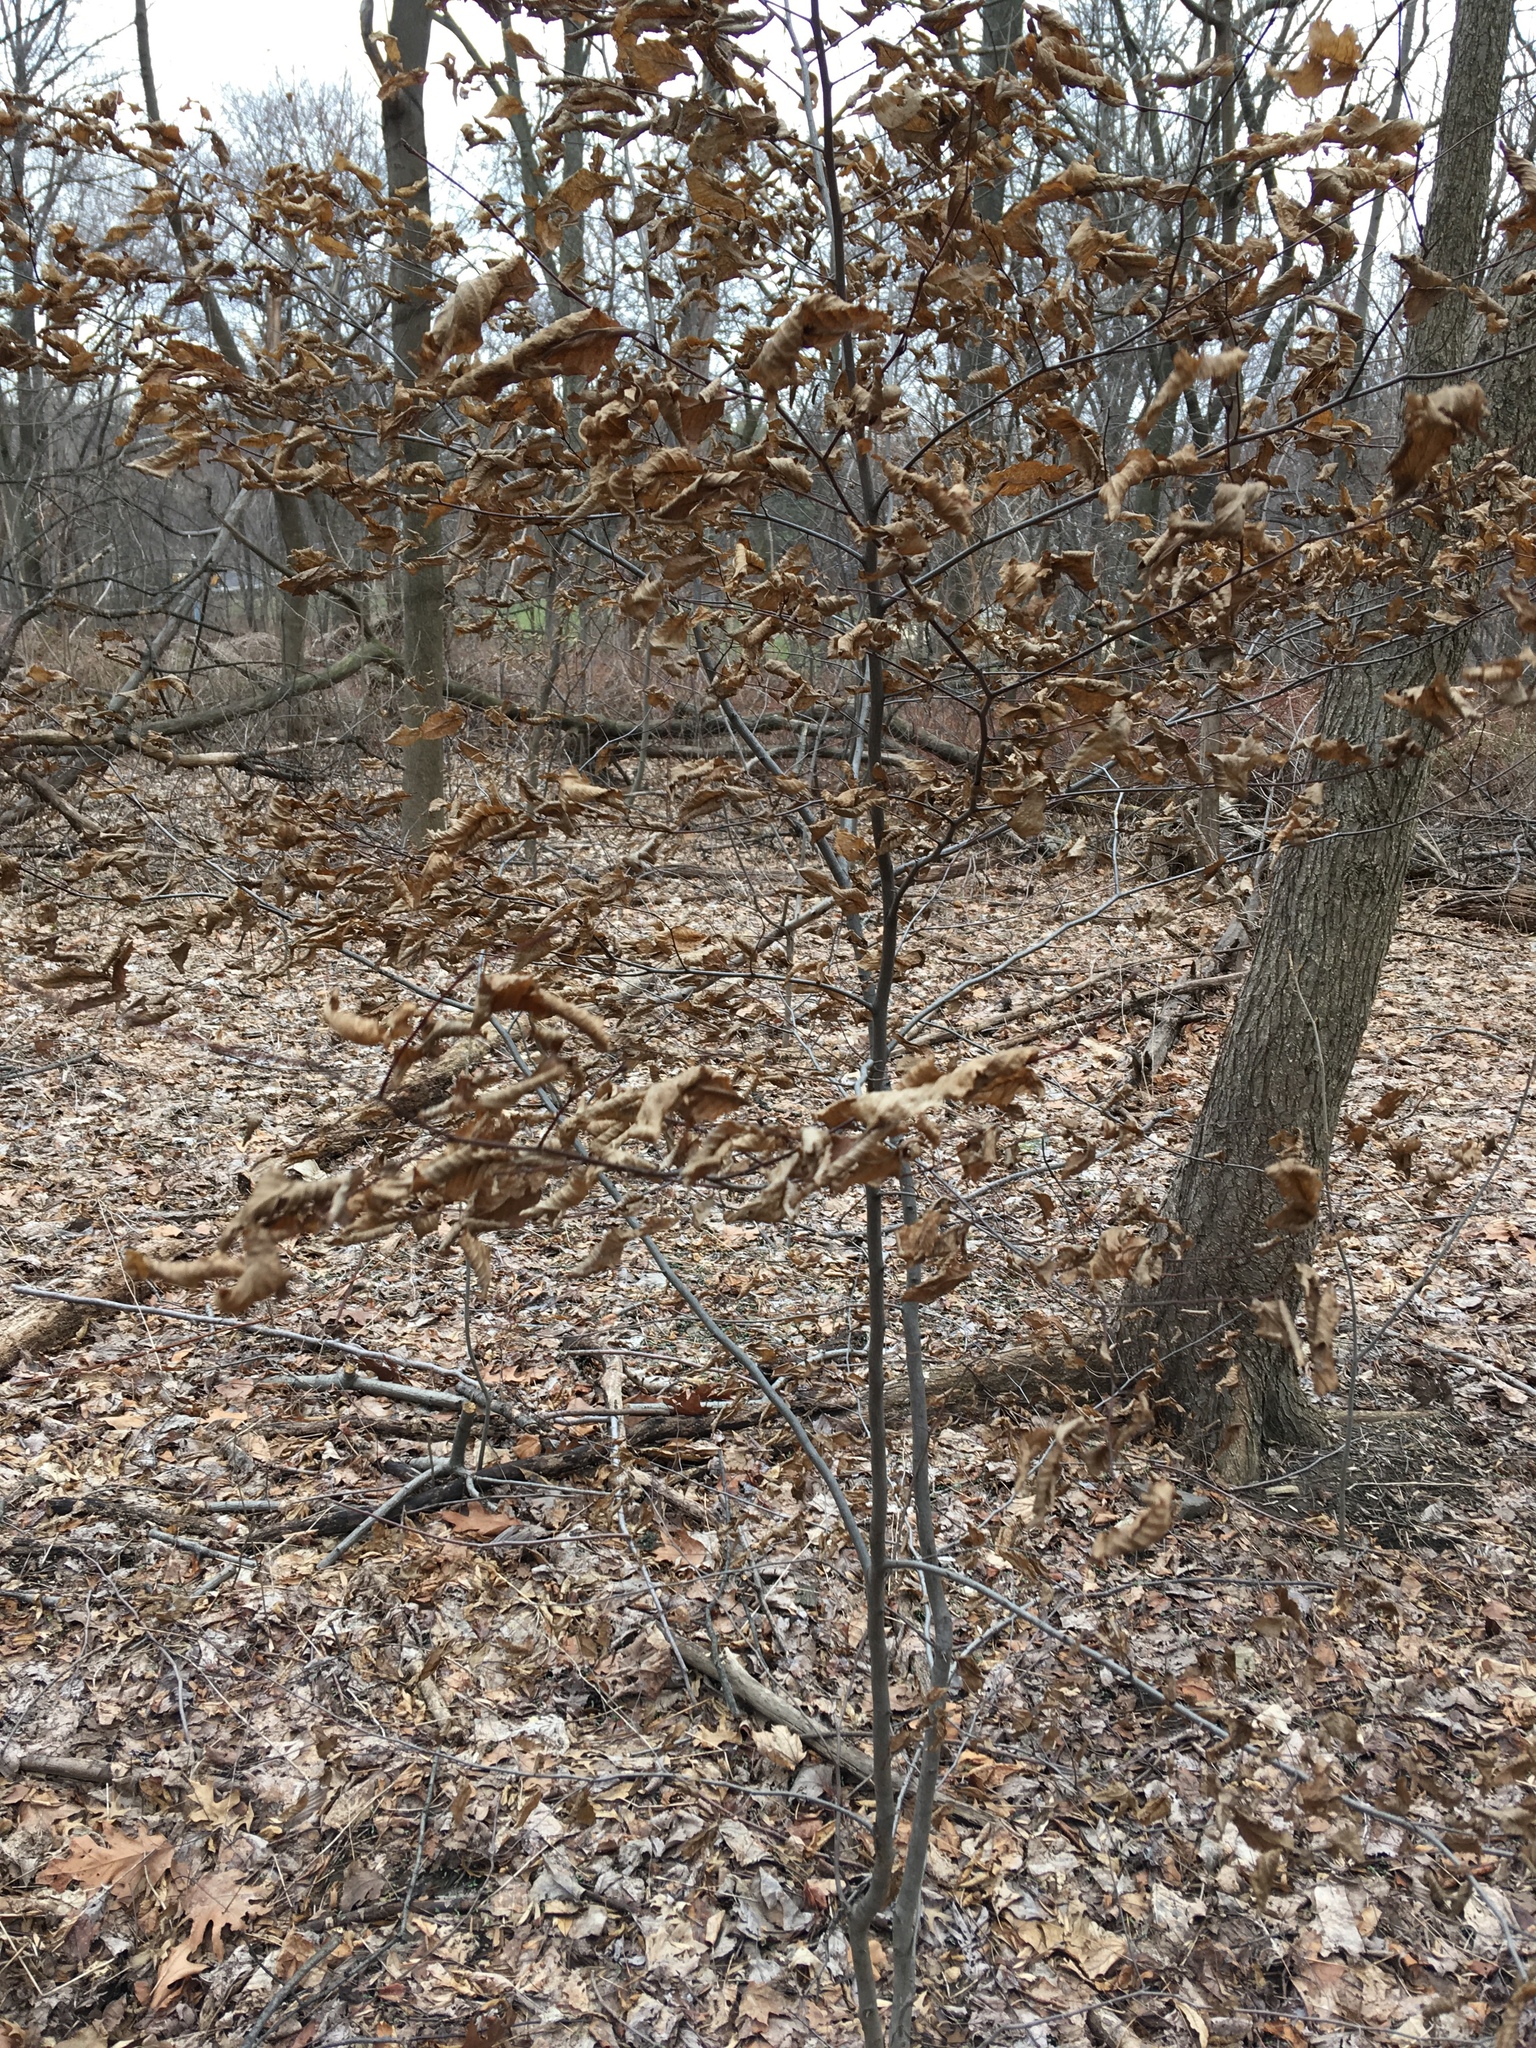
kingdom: Plantae
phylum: Tracheophyta
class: Magnoliopsida
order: Fagales
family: Betulaceae
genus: Carpinus
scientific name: Carpinus caroliniana
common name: American hornbeam
